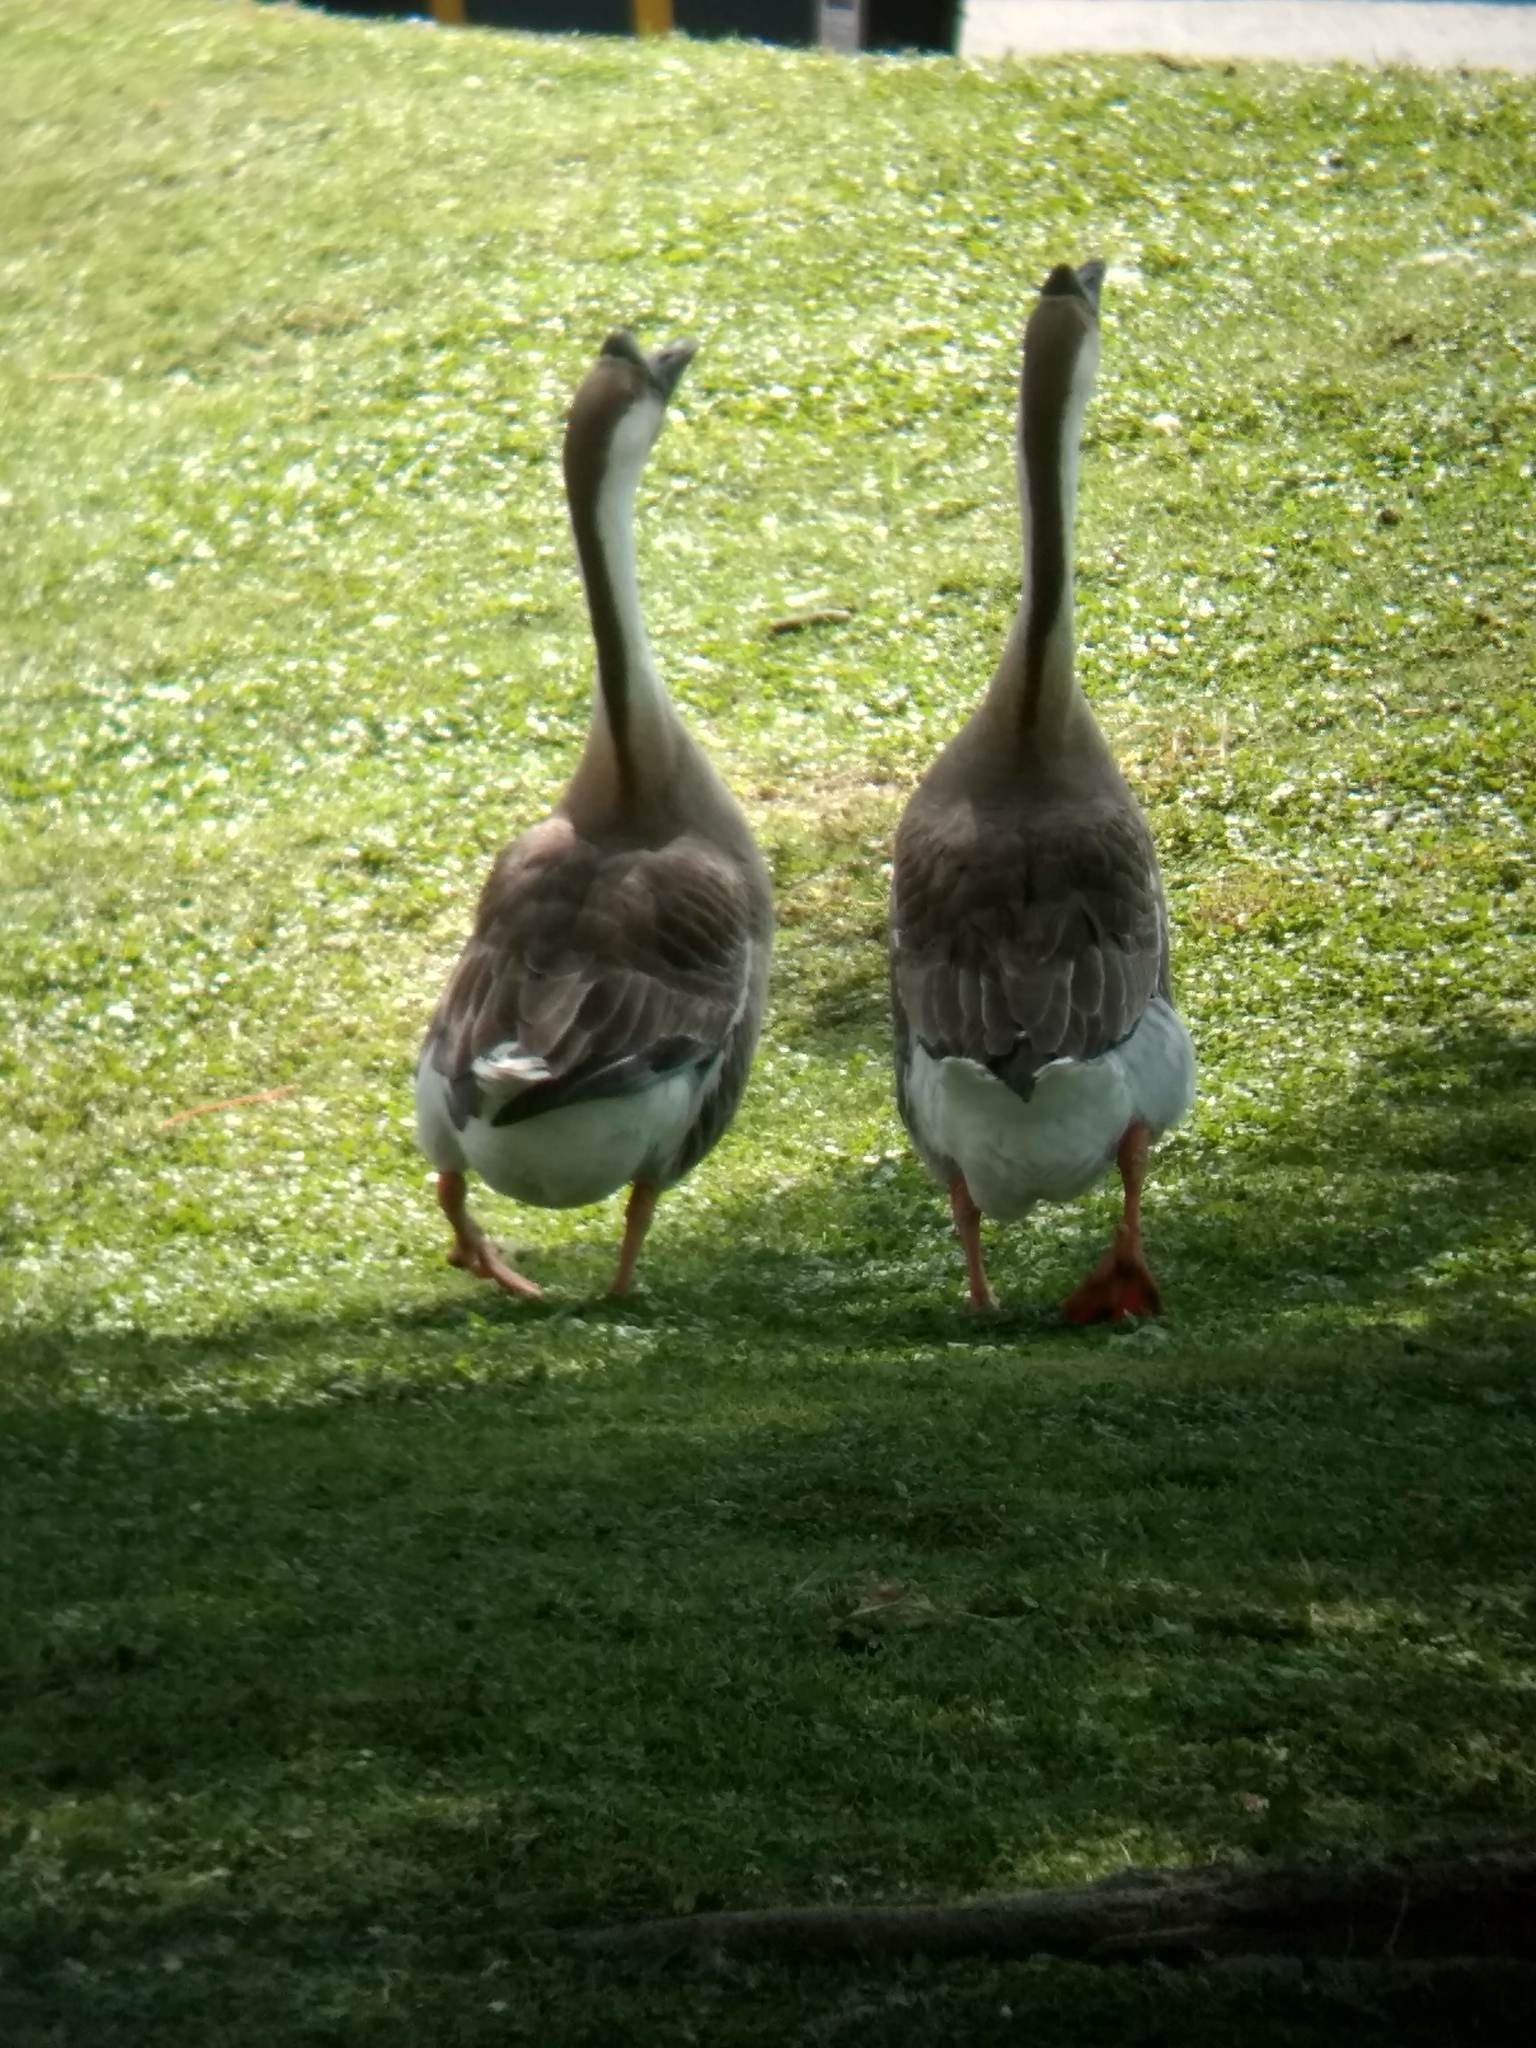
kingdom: Animalia
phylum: Chordata
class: Aves
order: Anseriformes
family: Anatidae
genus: Anser
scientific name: Anser cygnoides
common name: Swan goose
